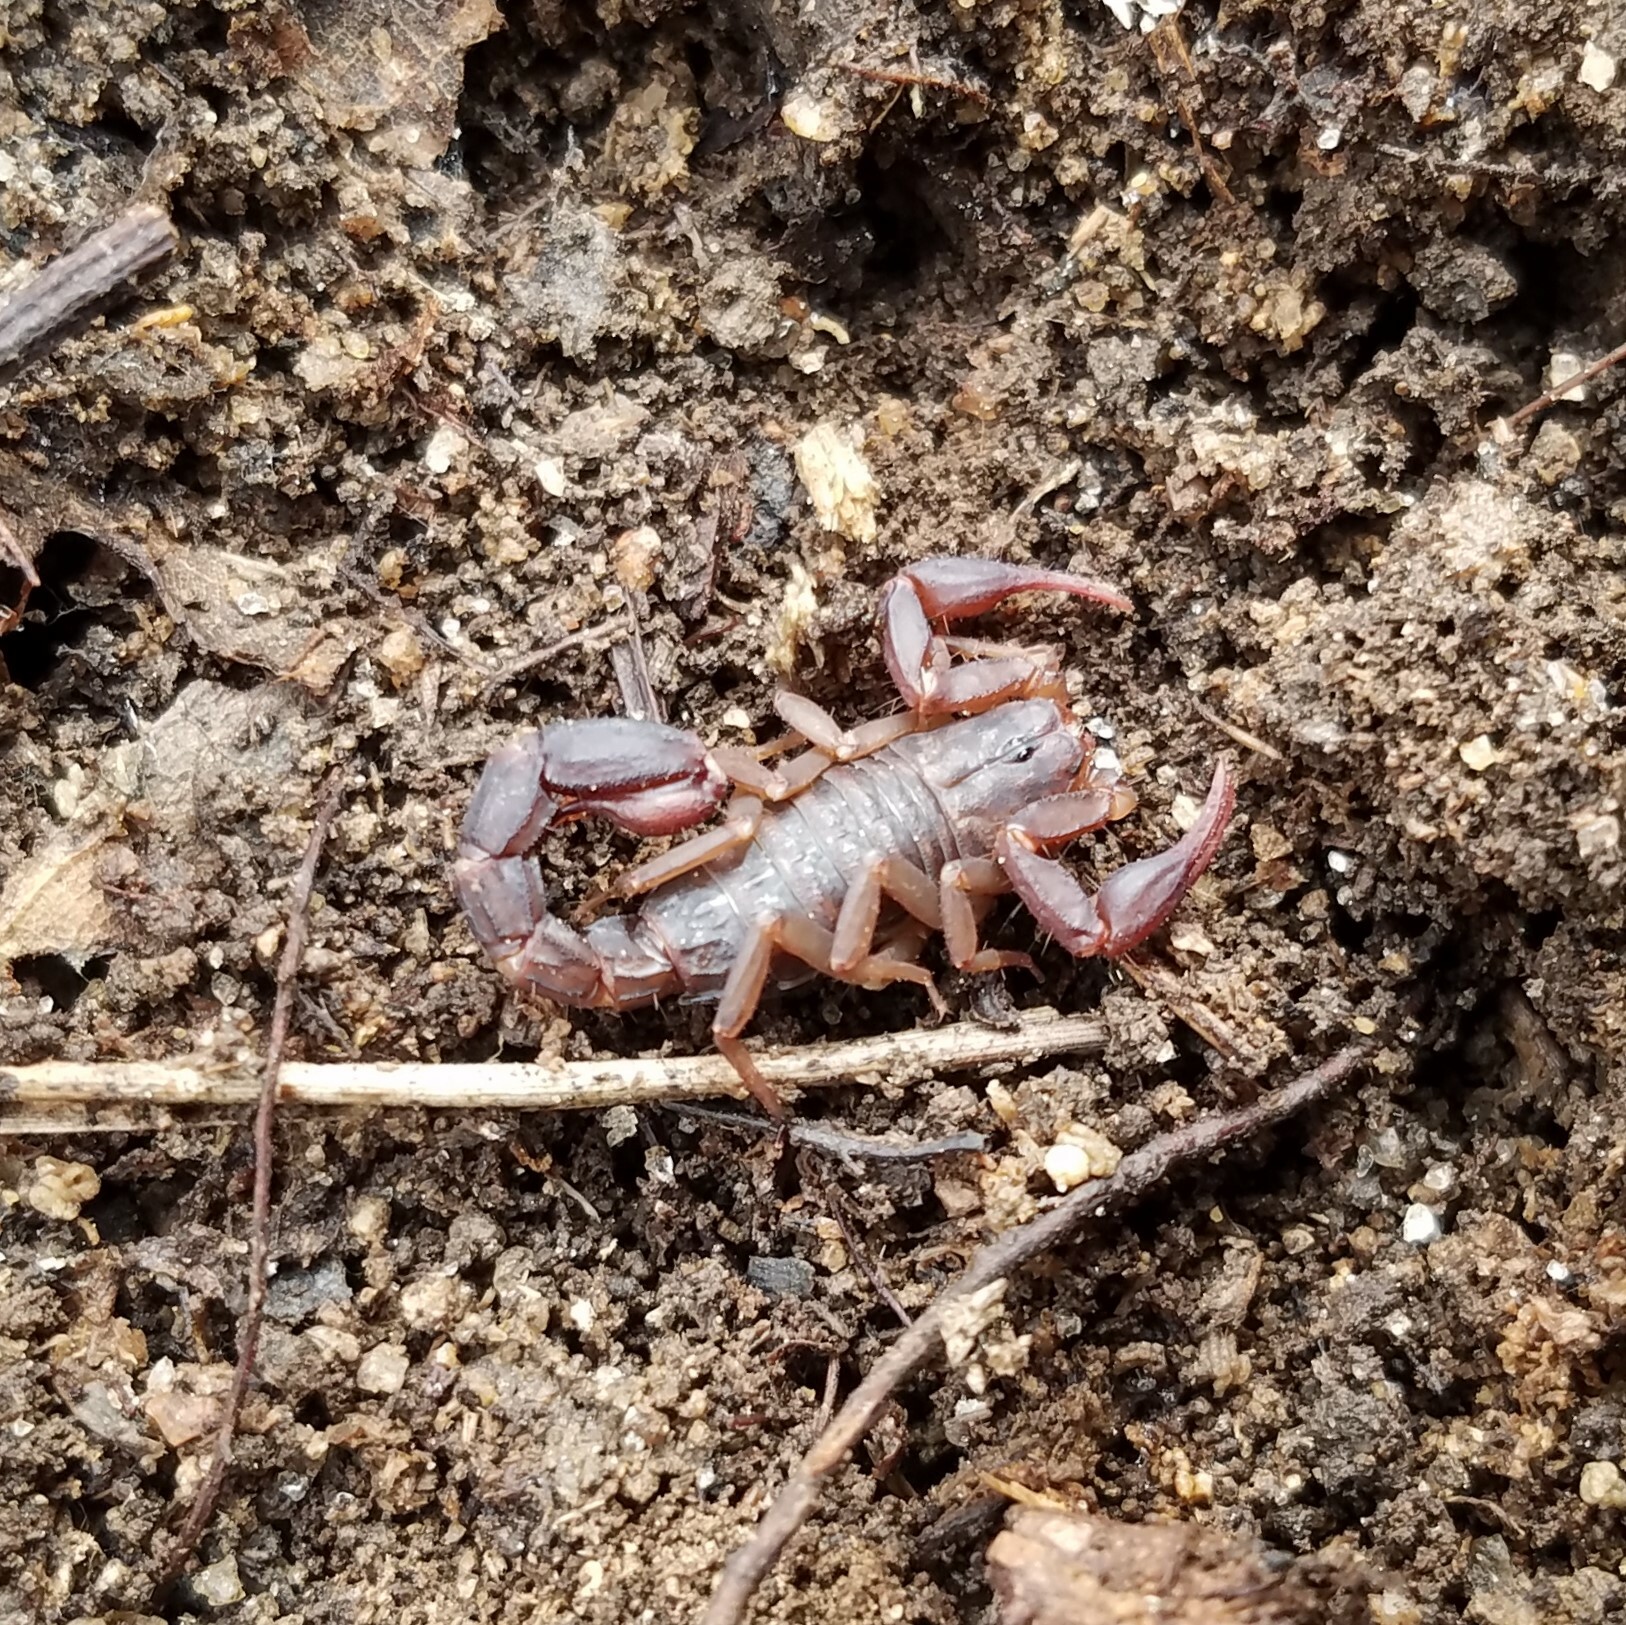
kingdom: Animalia
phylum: Arthropoda
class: Arachnida
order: Scorpiones
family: Vaejovidae
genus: Vaejovis
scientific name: Vaejovis carolinianus
